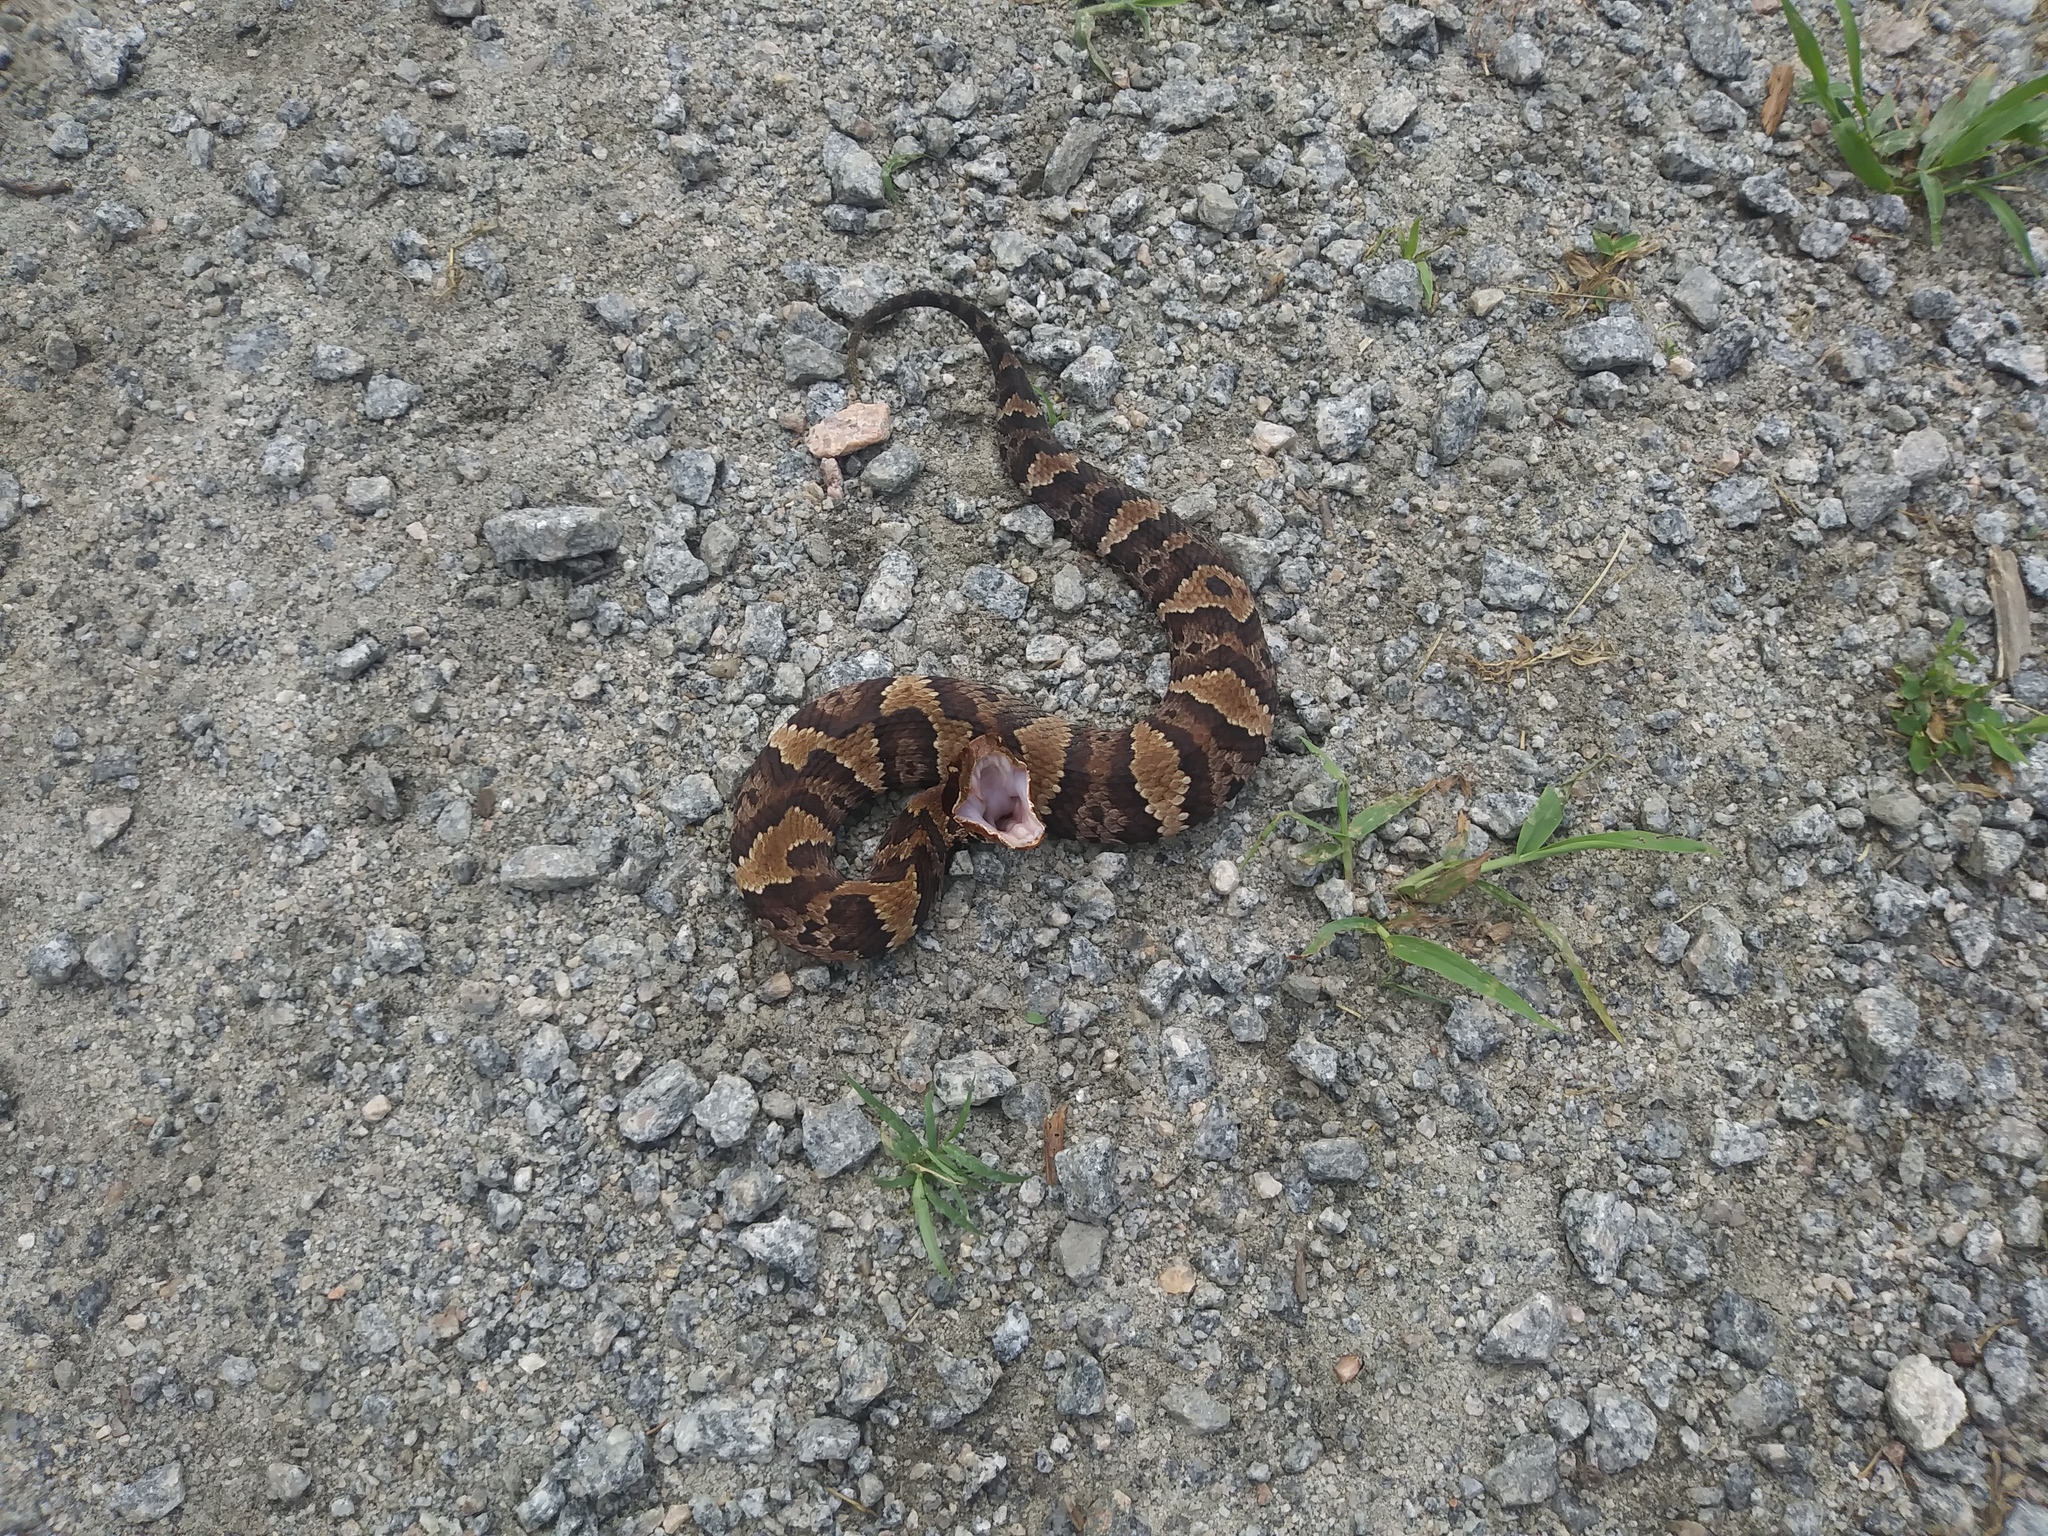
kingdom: Animalia
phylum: Chordata
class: Squamata
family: Viperidae
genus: Agkistrodon
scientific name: Agkistrodon piscivorus
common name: Cottonmouth
